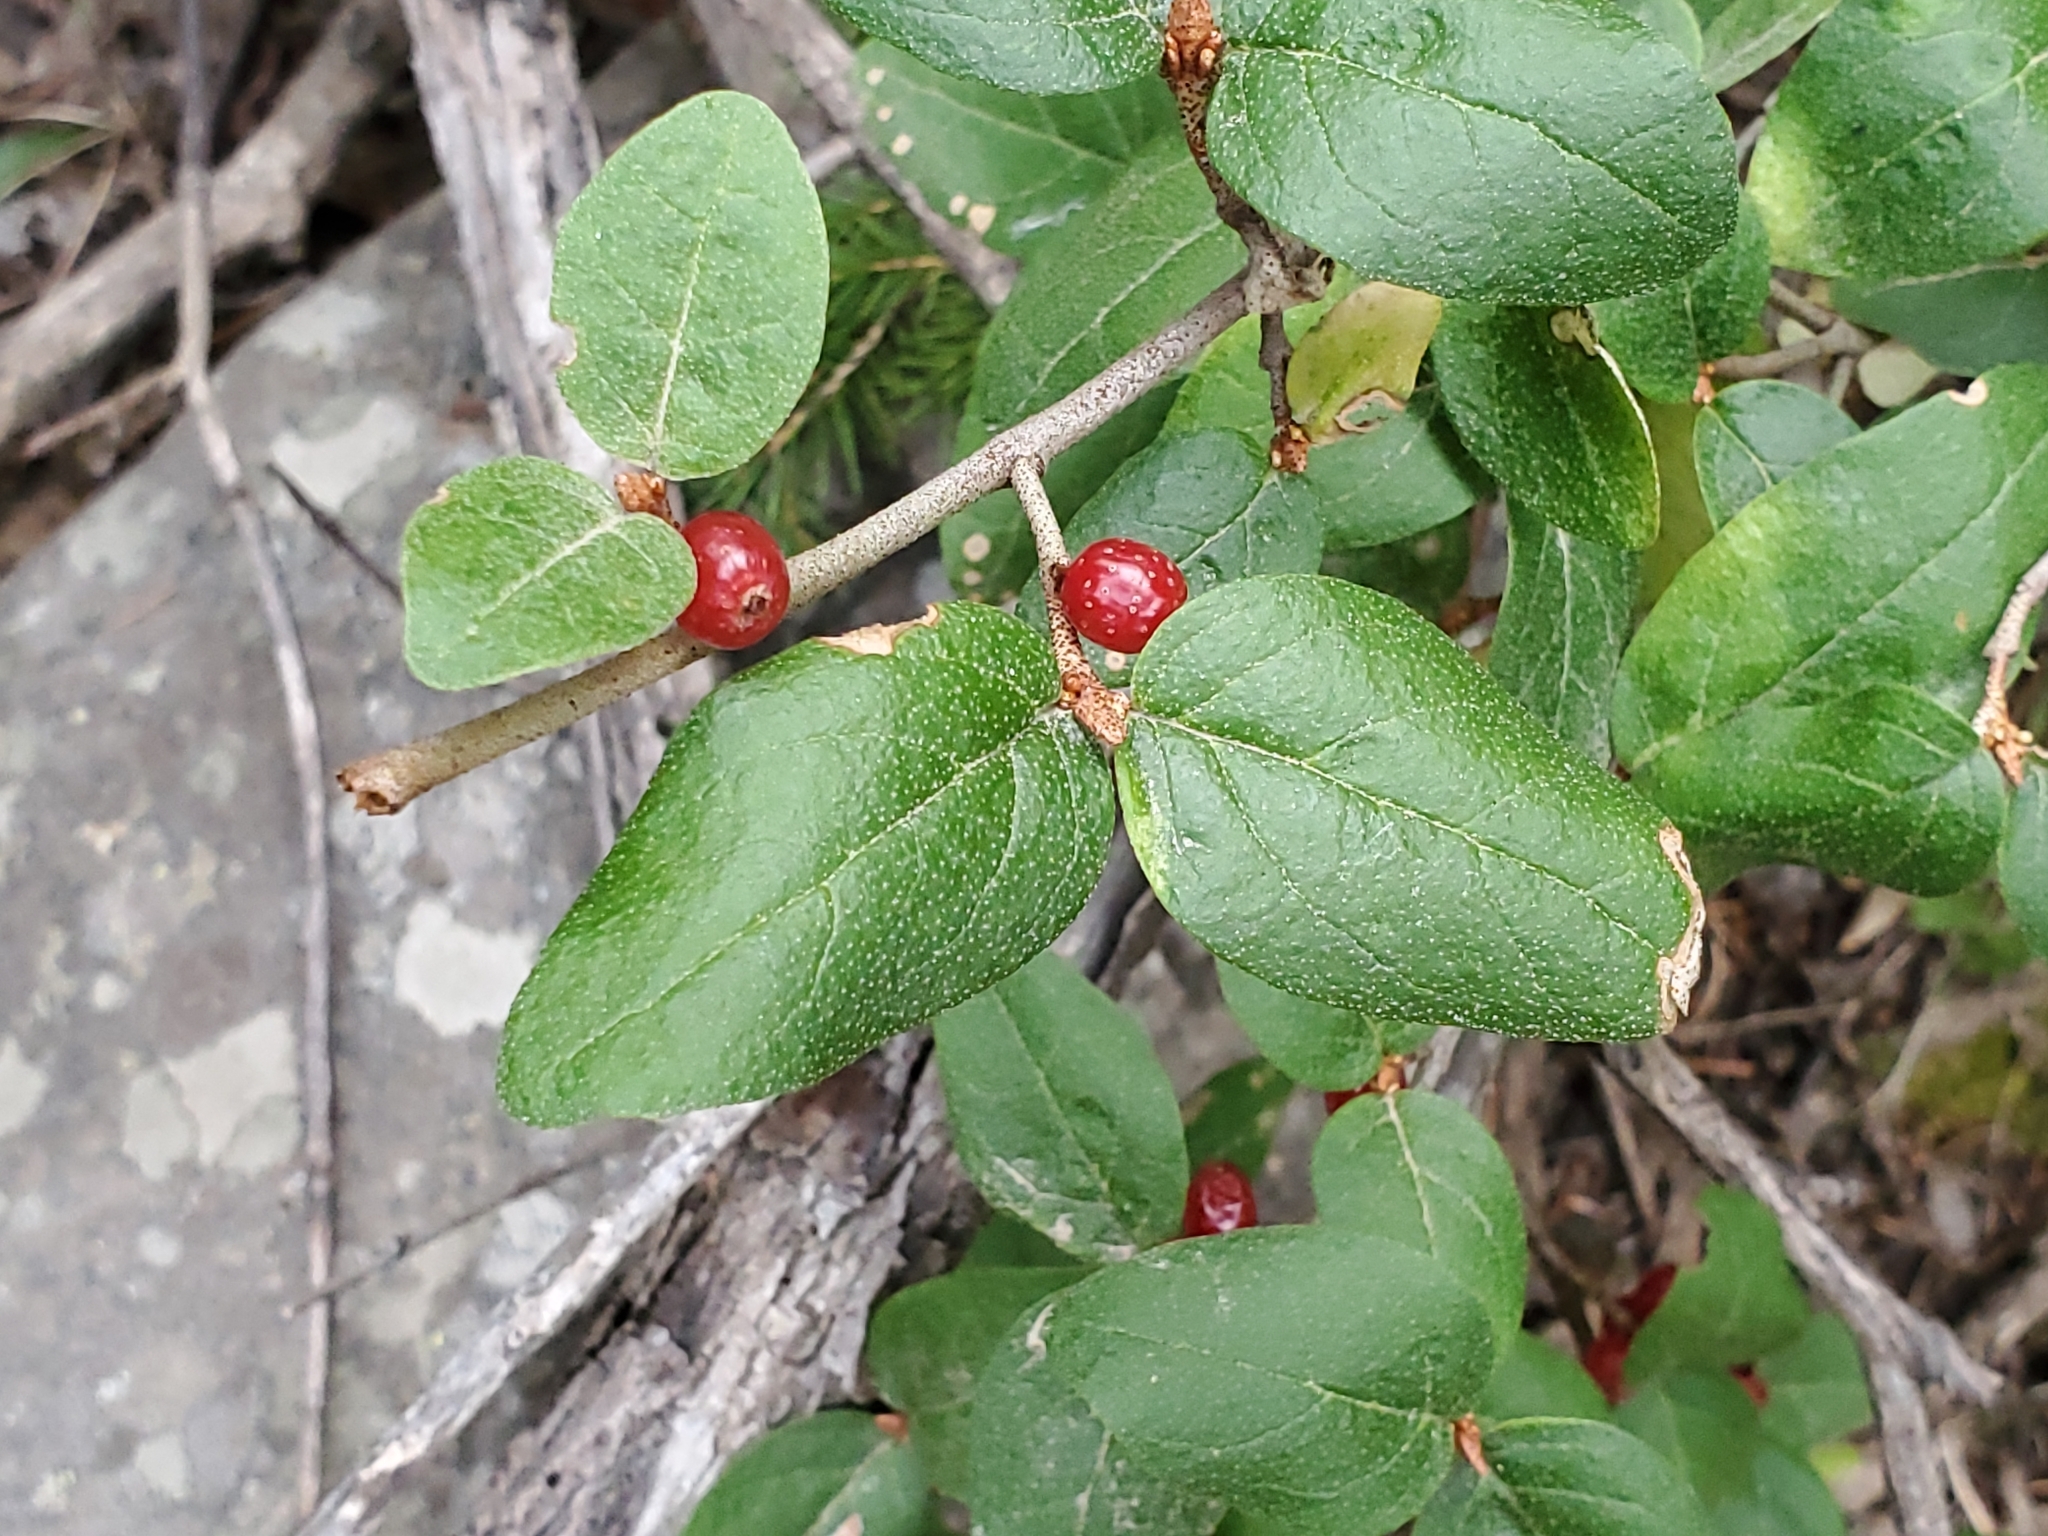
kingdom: Plantae
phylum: Tracheophyta
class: Magnoliopsida
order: Rosales
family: Elaeagnaceae
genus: Shepherdia
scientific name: Shepherdia canadensis
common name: Soapberry
